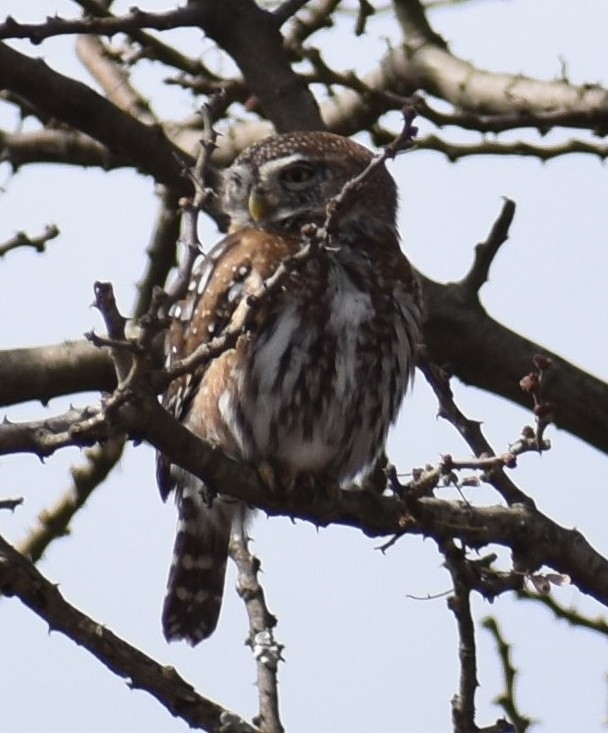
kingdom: Animalia
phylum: Chordata
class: Aves
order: Strigiformes
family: Strigidae
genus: Glaucidium
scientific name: Glaucidium perlatum
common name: Pearl-spotted owlet
